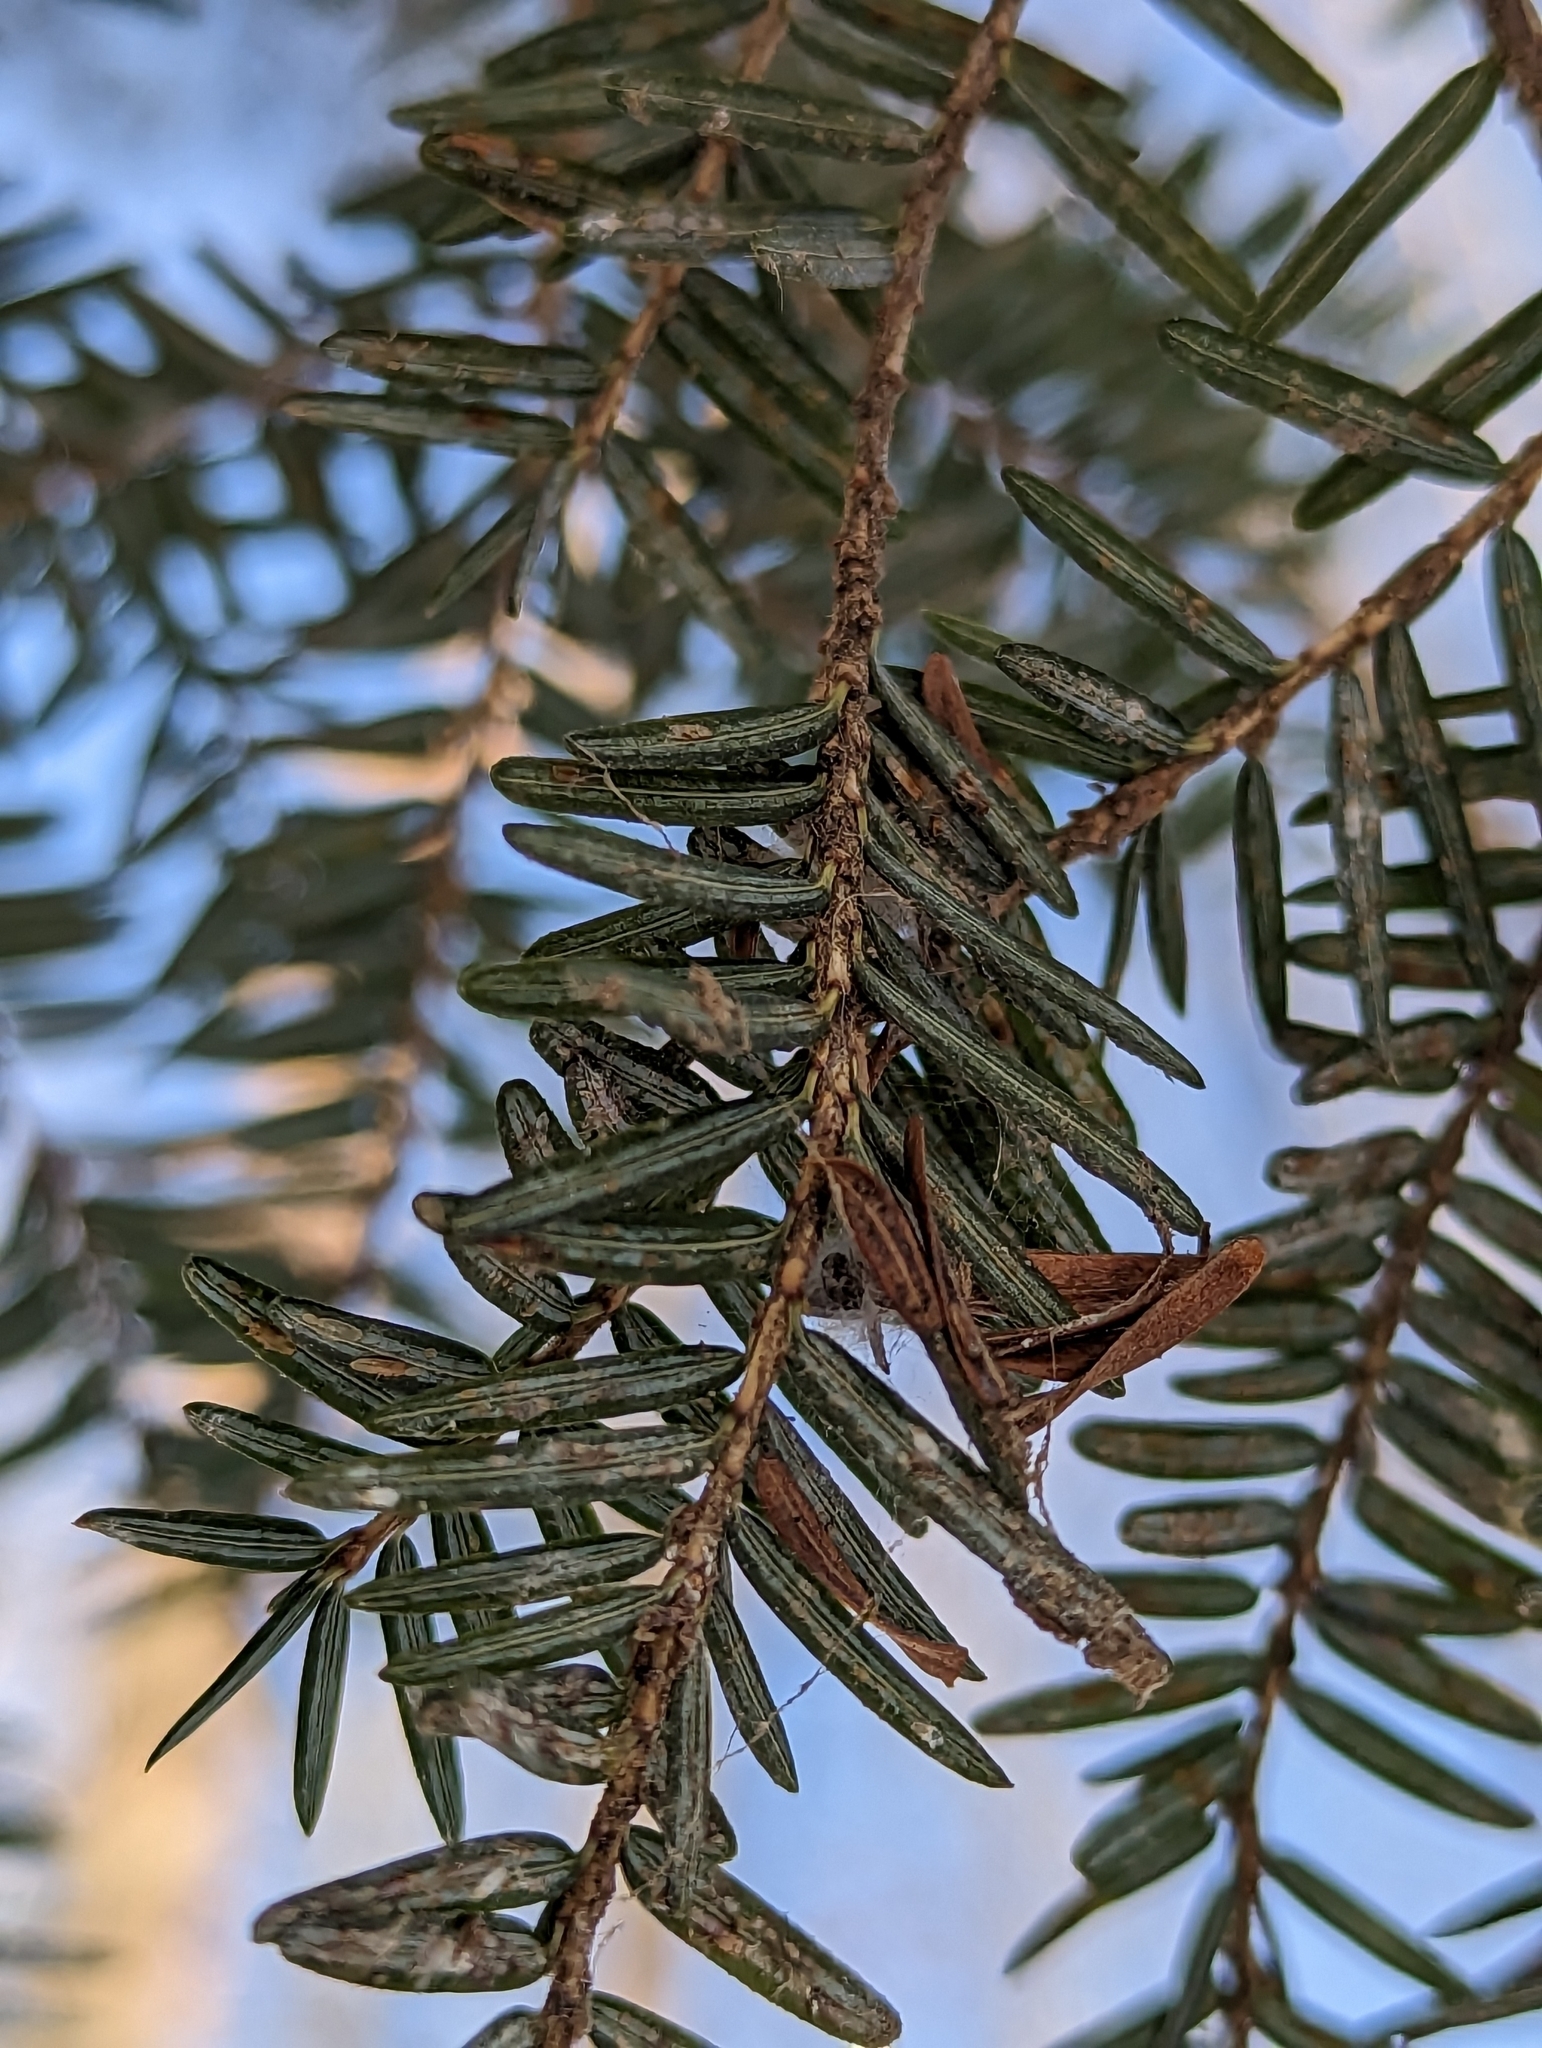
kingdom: Animalia
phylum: Arthropoda
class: Insecta
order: Hemiptera
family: Diaspididae
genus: Fiorinia
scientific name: Fiorinia externa
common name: Elongate hemlock scale
